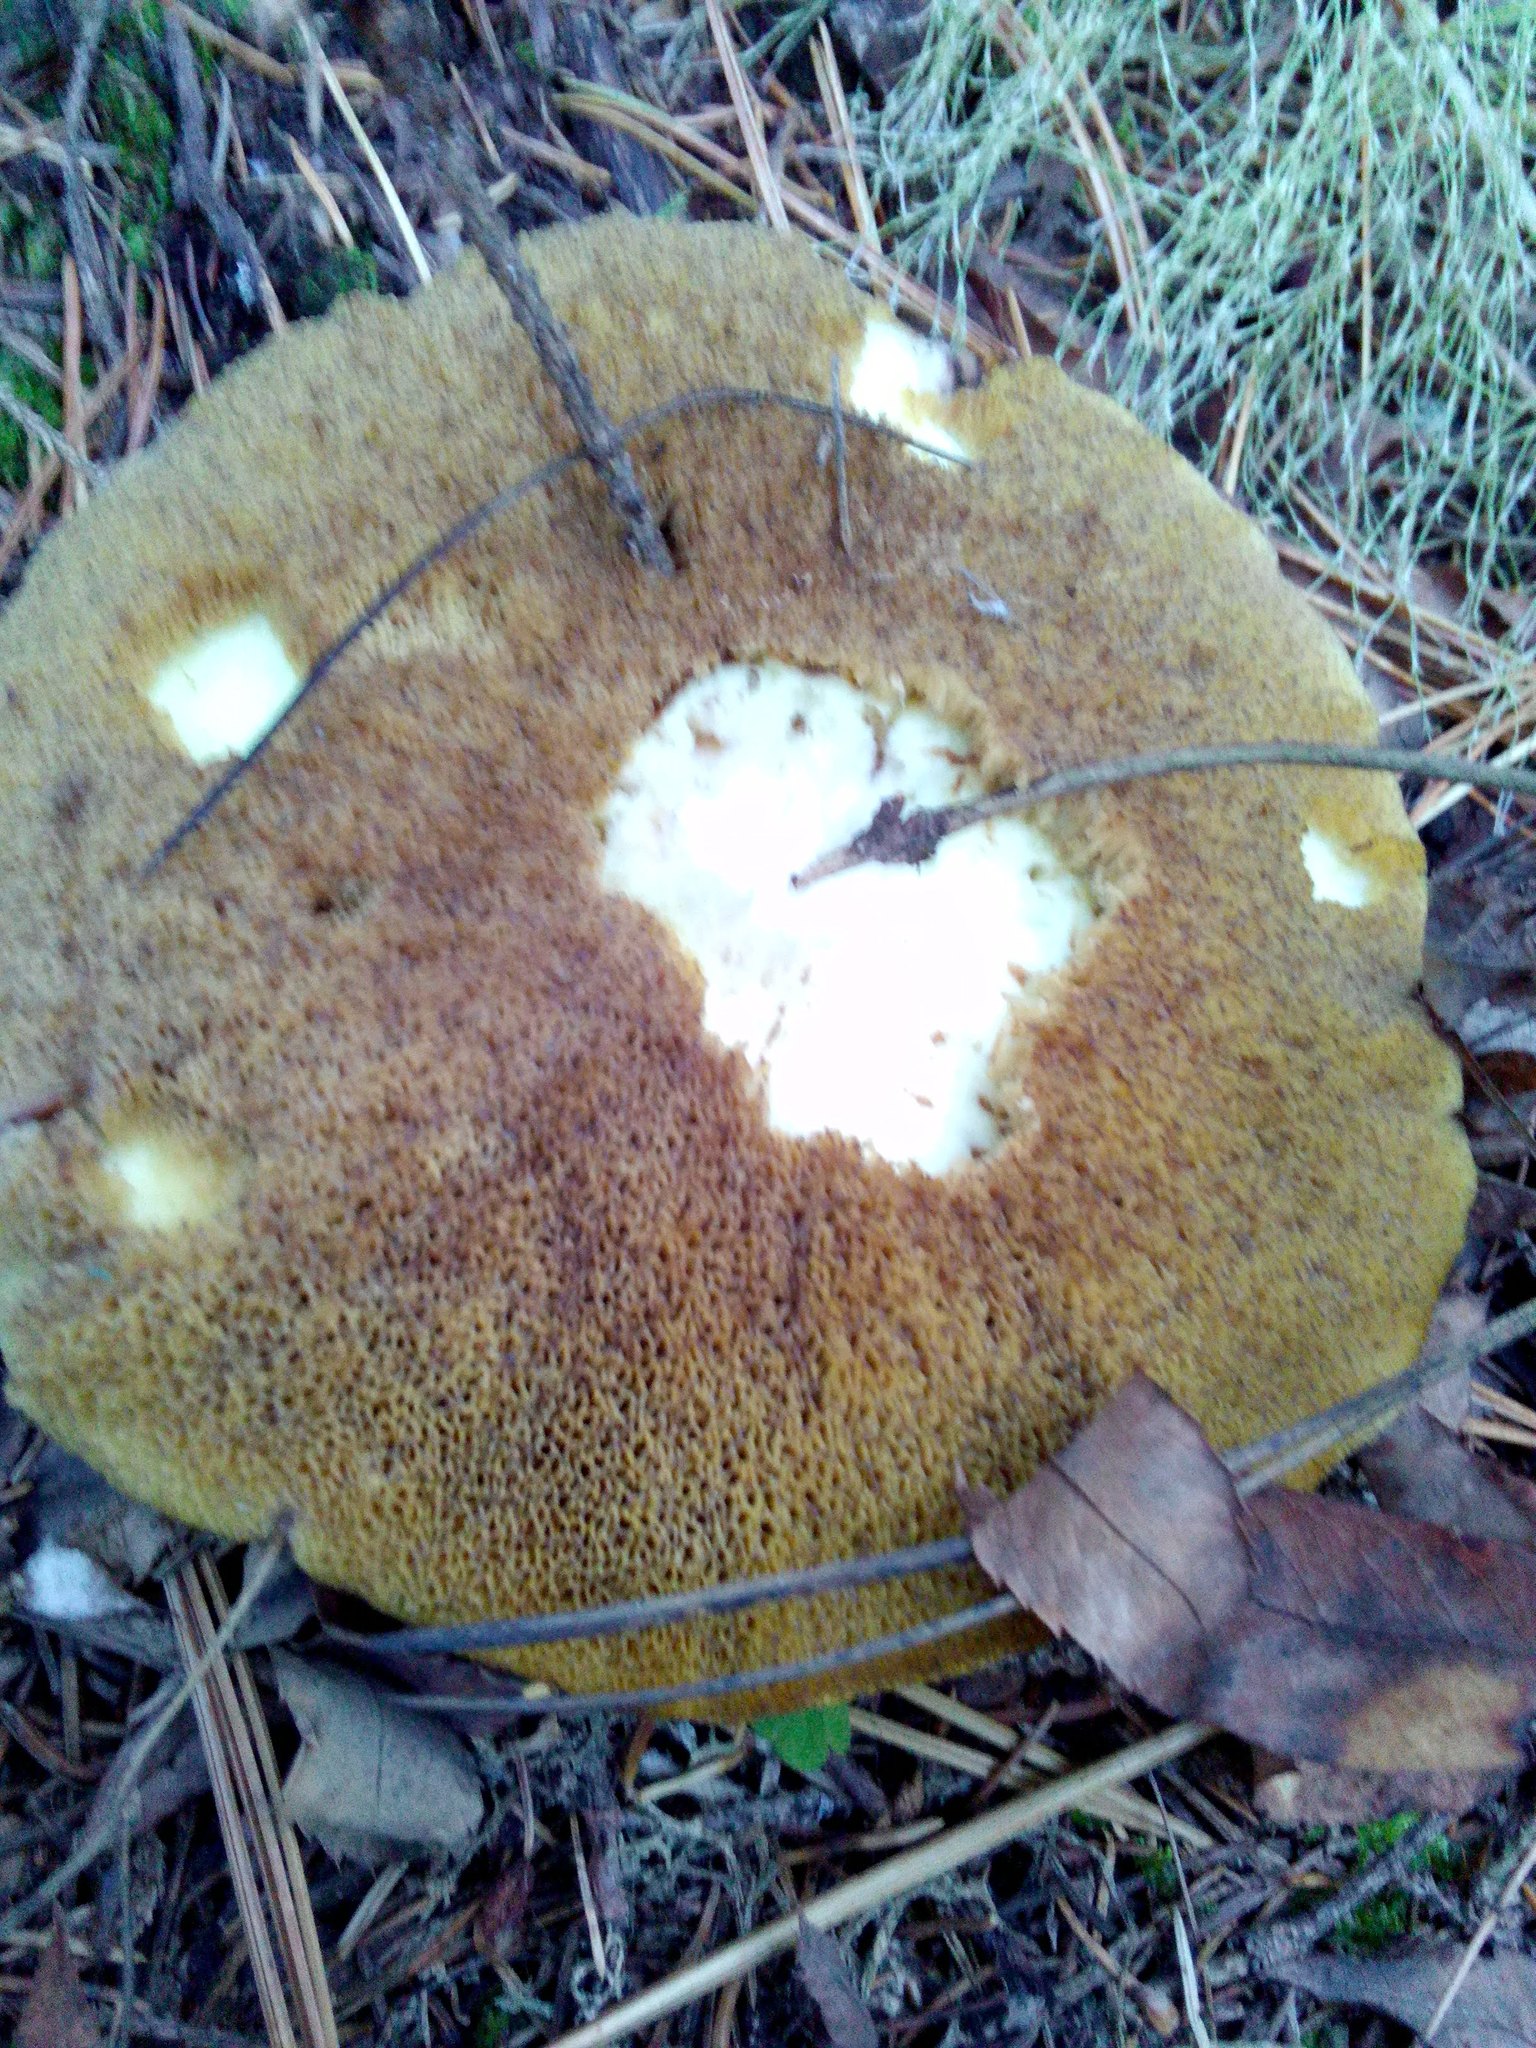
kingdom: Fungi
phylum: Basidiomycota
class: Agaricomycetes
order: Boletales
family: Suillaceae
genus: Suillus
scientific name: Suillus placidus
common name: Slippery white bolete
